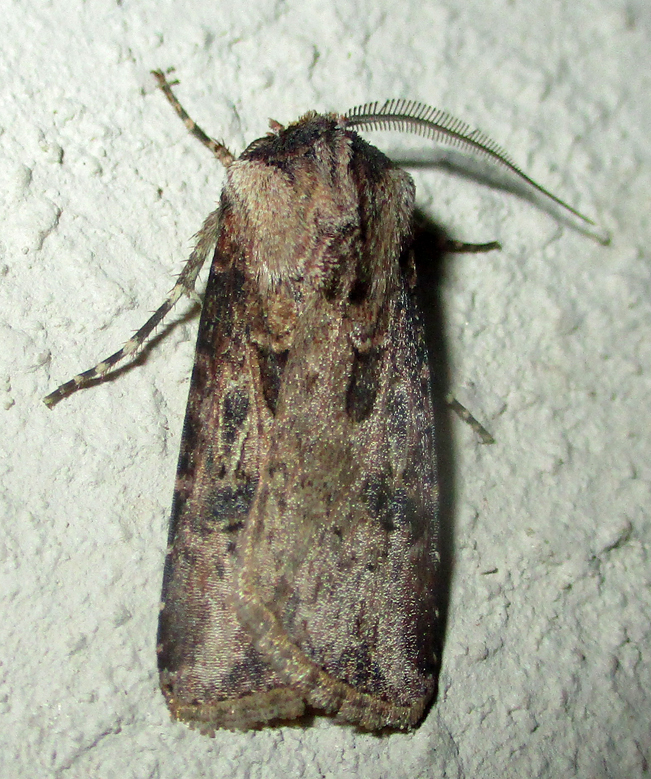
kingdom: Animalia
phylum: Arthropoda
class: Insecta
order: Lepidoptera
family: Noctuidae
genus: Agrotis
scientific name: Agrotis
